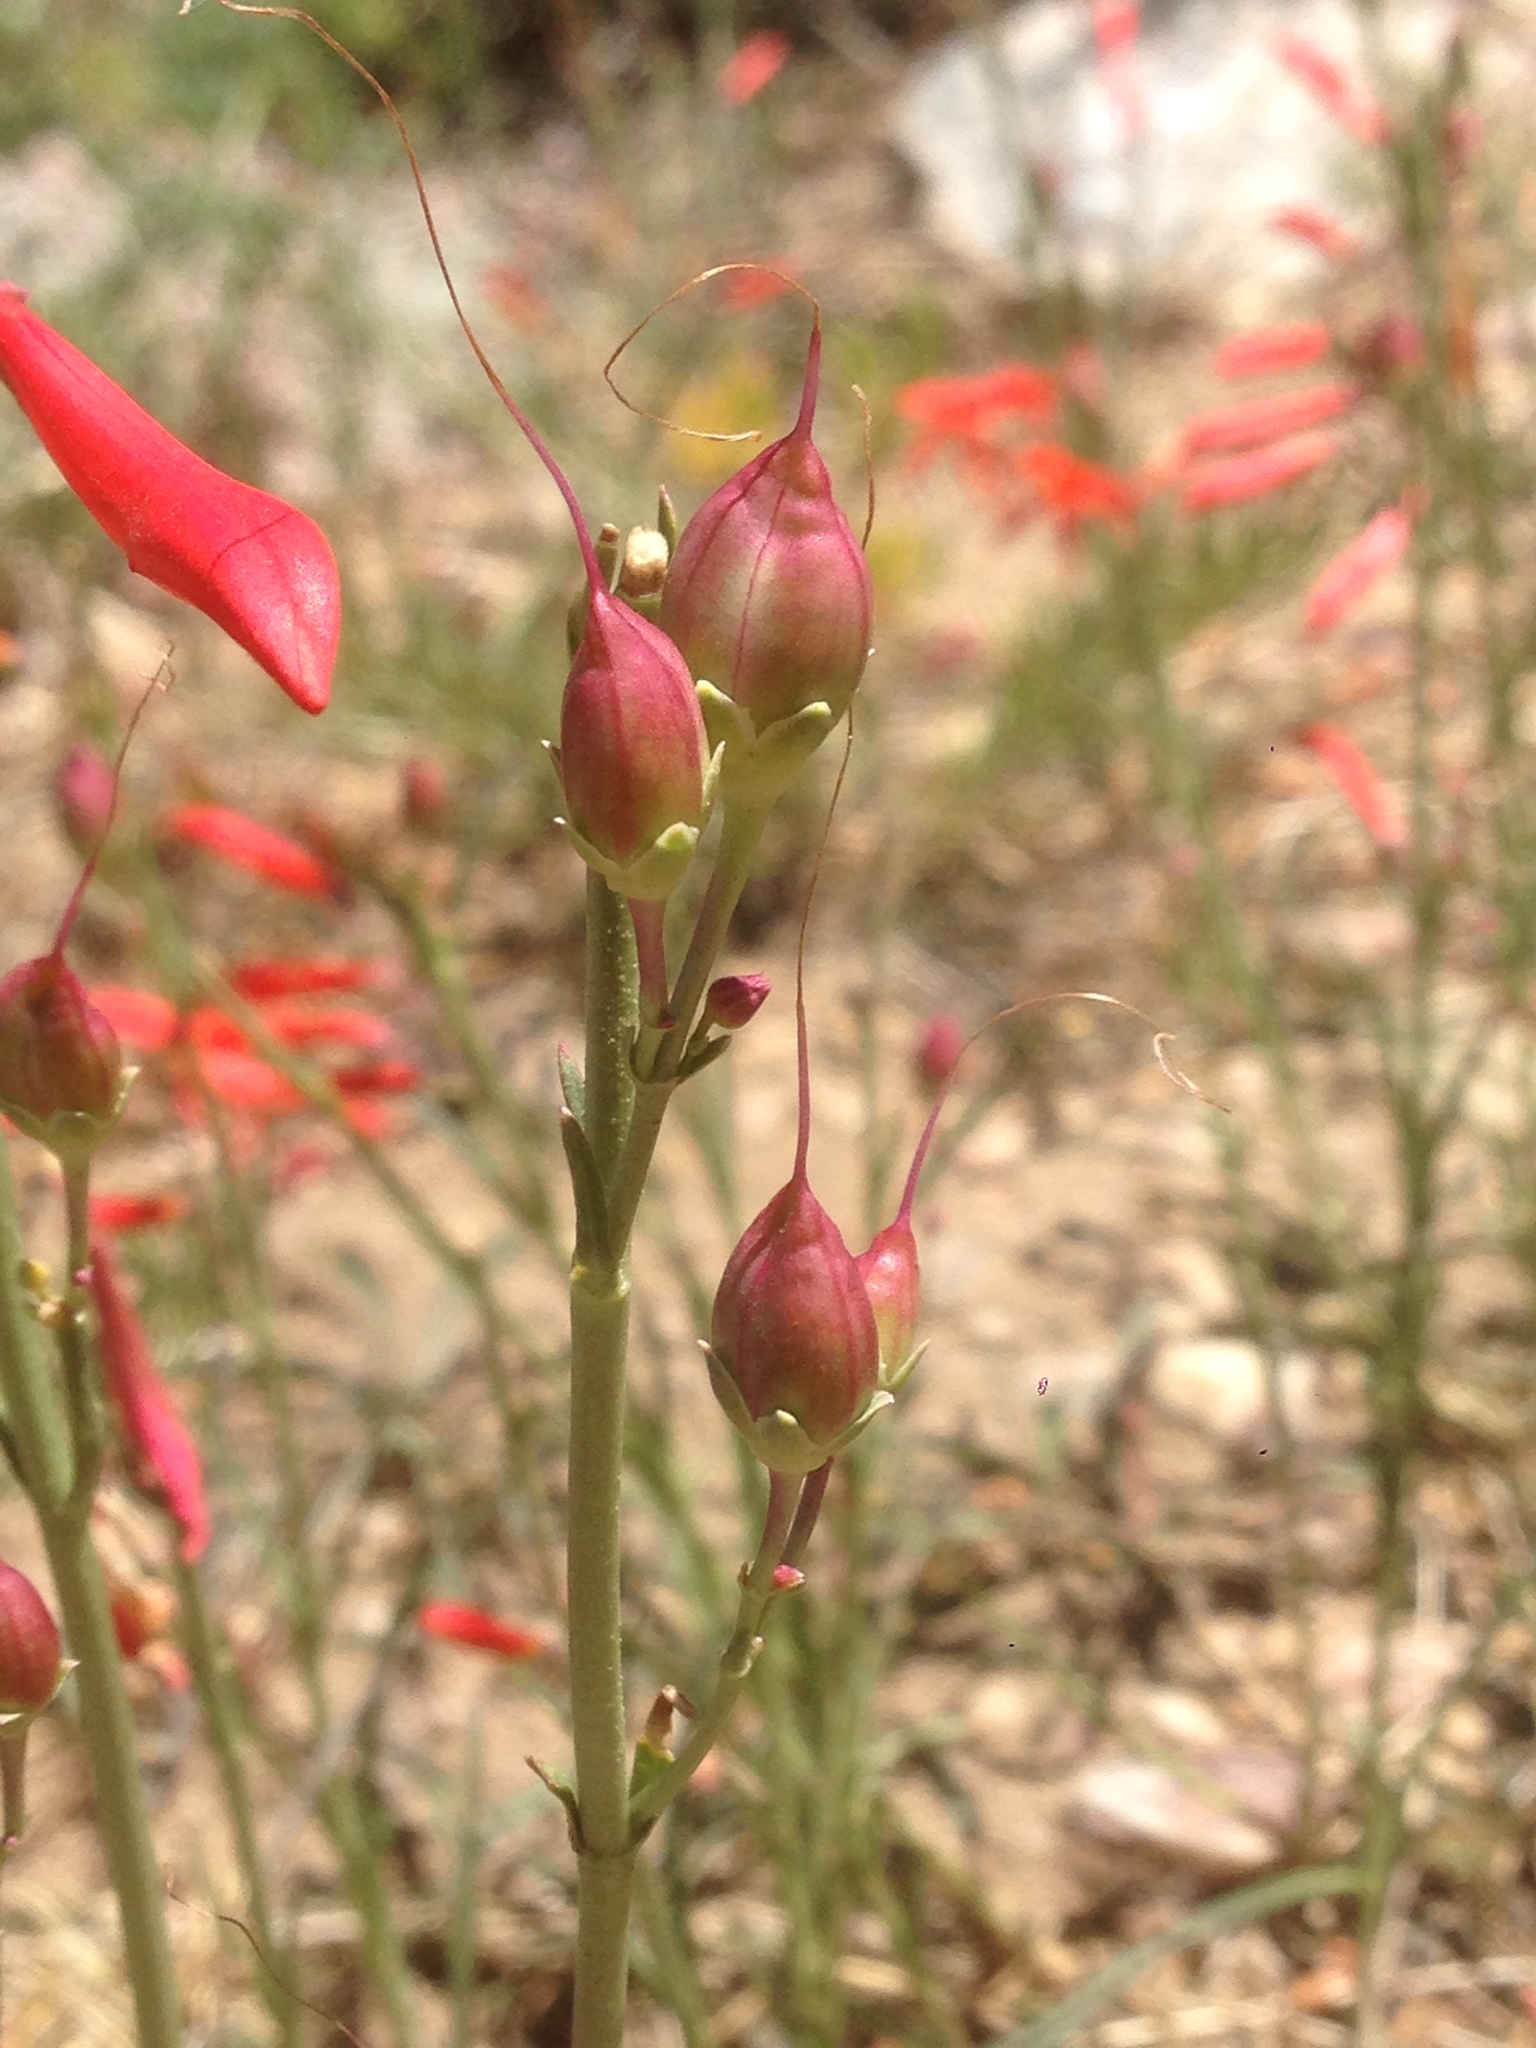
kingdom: Plantae
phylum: Tracheophyta
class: Magnoliopsida
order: Lamiales
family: Plantaginaceae
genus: Penstemon
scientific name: Penstemon labrosus
